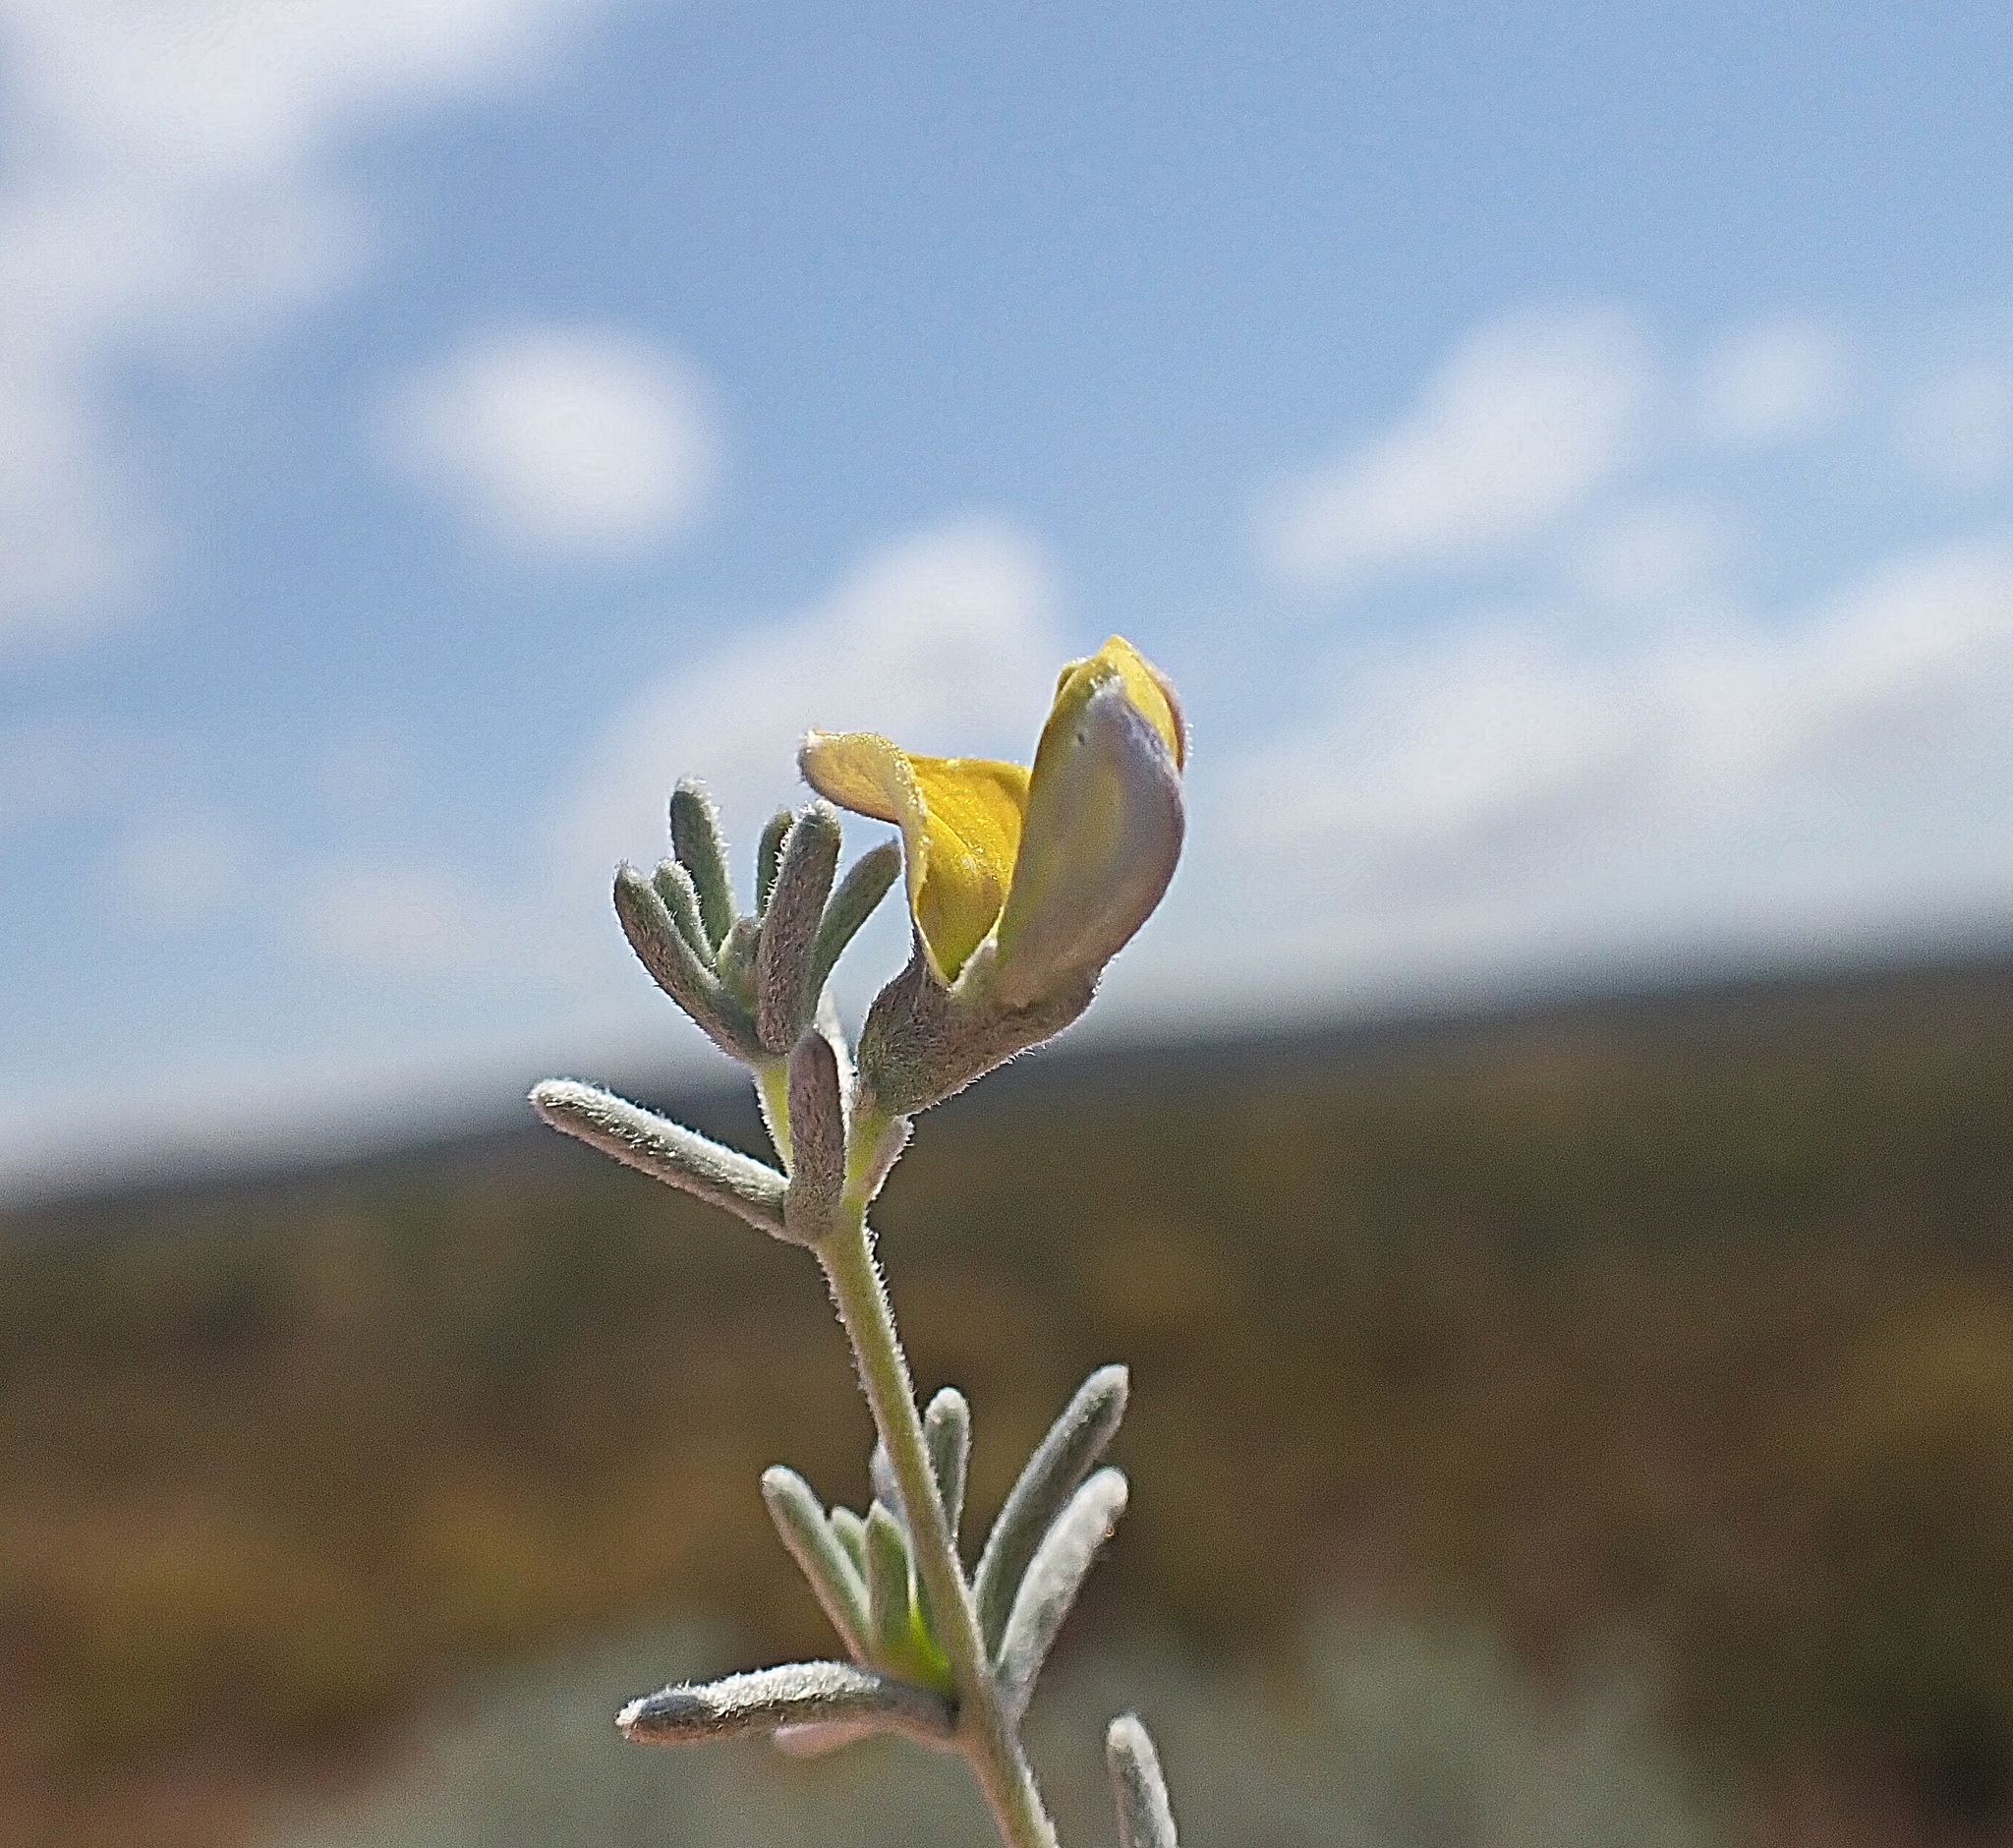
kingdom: Plantae
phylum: Tracheophyta
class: Magnoliopsida
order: Fabales
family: Fabaceae
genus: Aspalathus
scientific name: Aspalathus pedunculata
